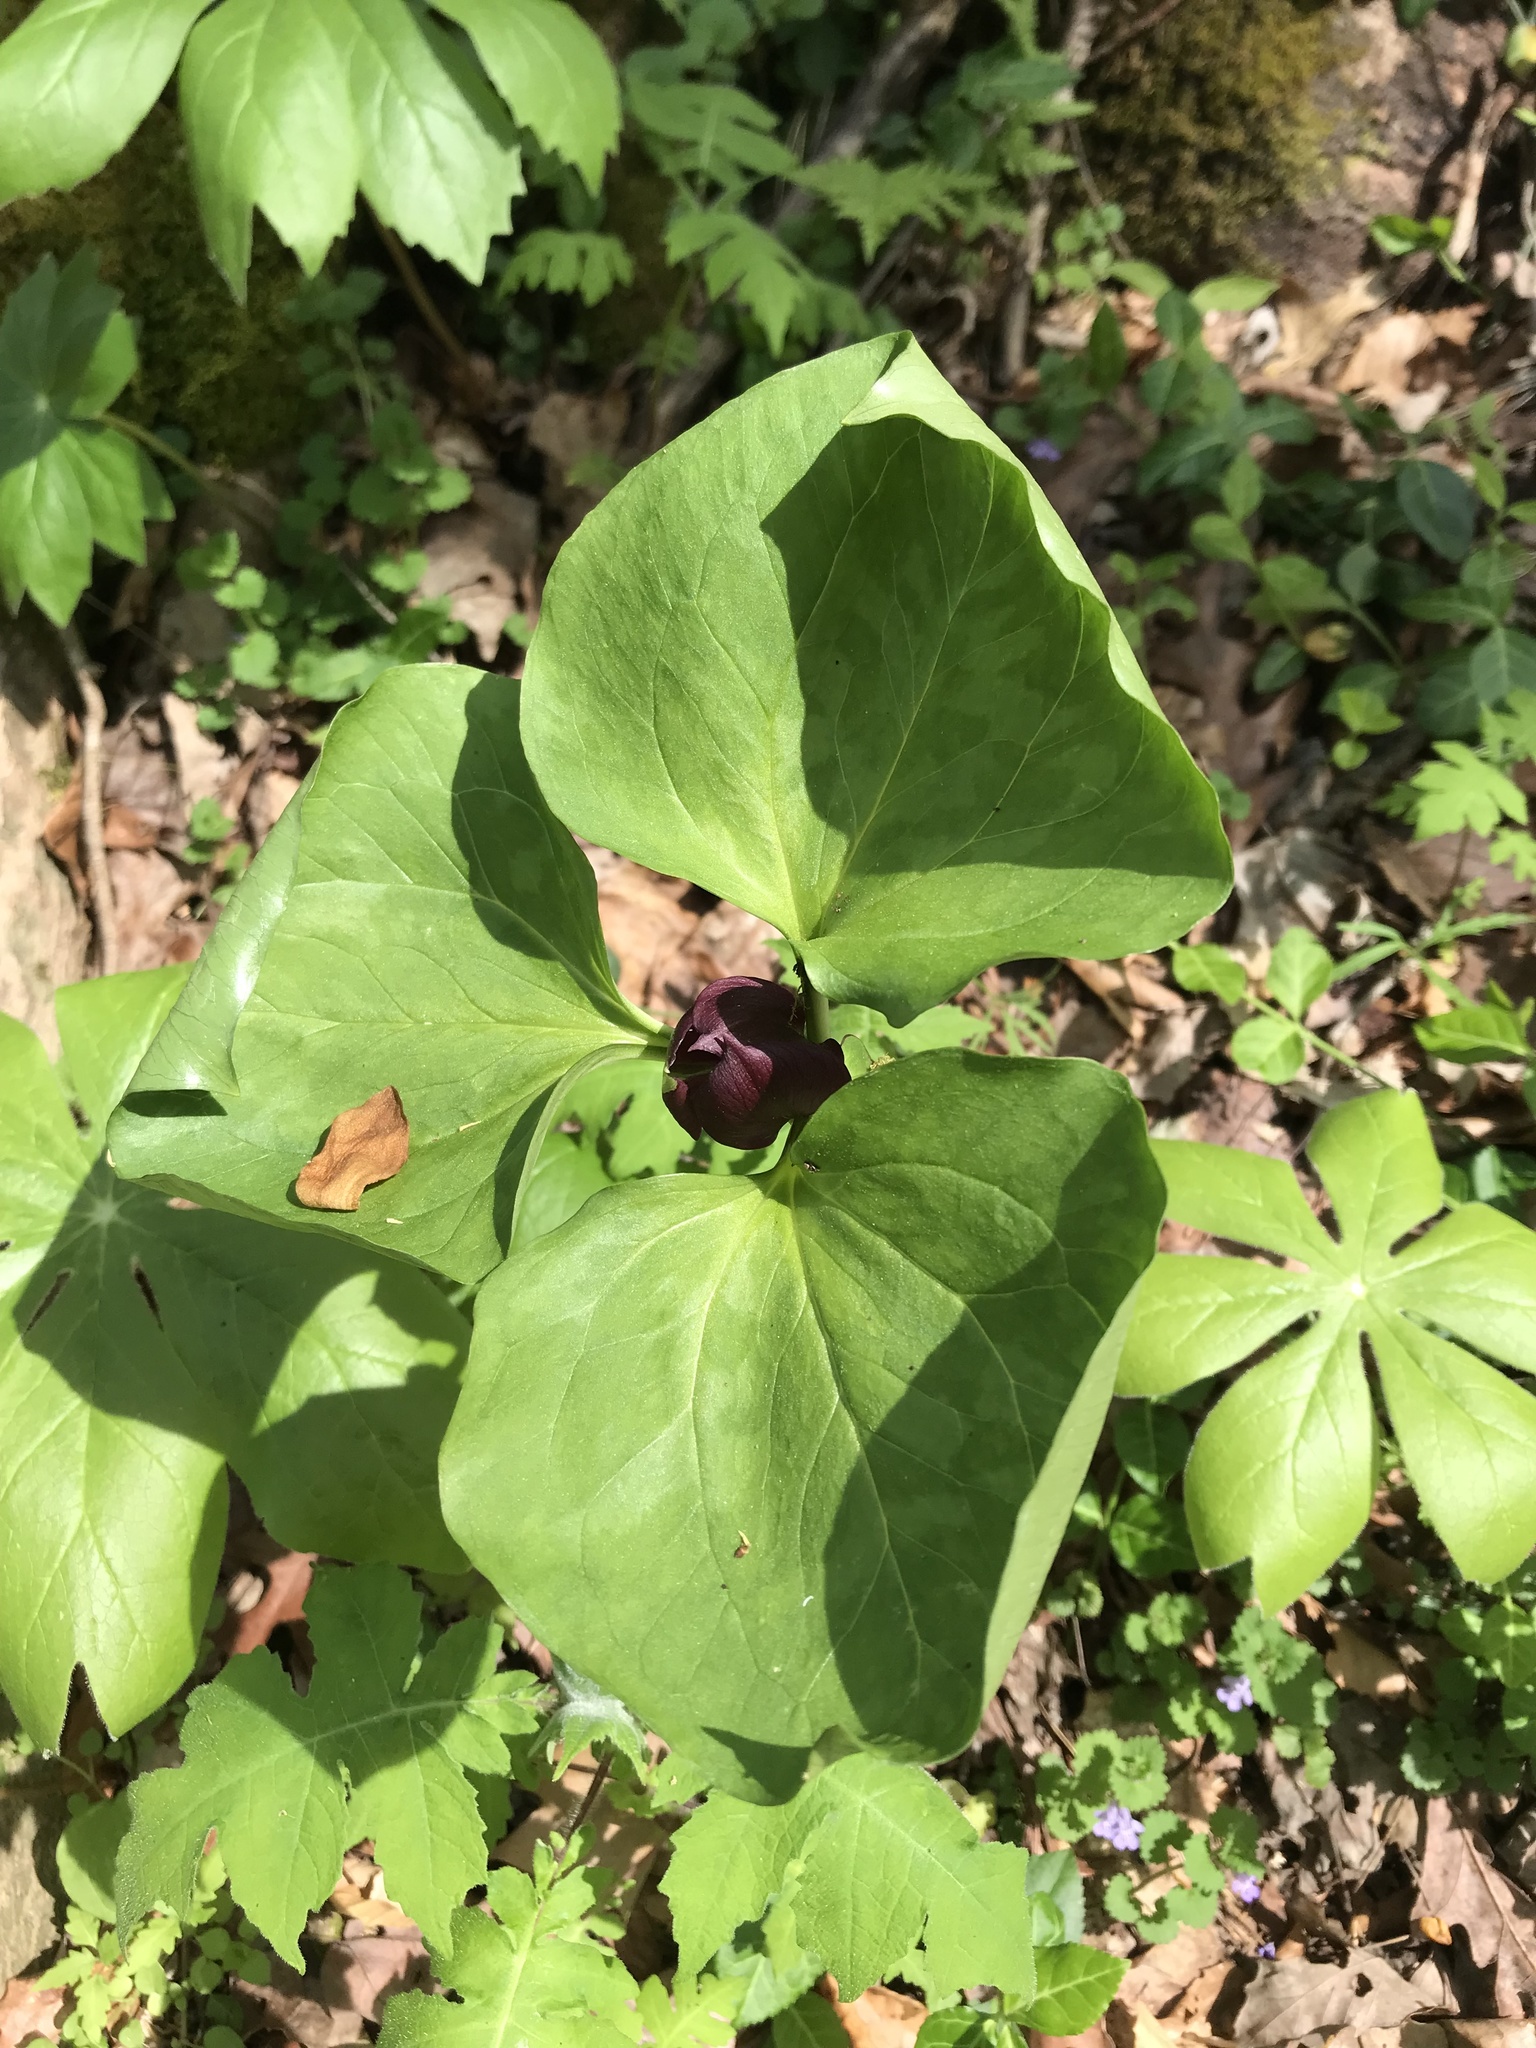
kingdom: Plantae
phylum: Tracheophyta
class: Liliopsida
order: Liliales
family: Melanthiaceae
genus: Trillium
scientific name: Trillium recurvatum
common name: Bloody butcher
